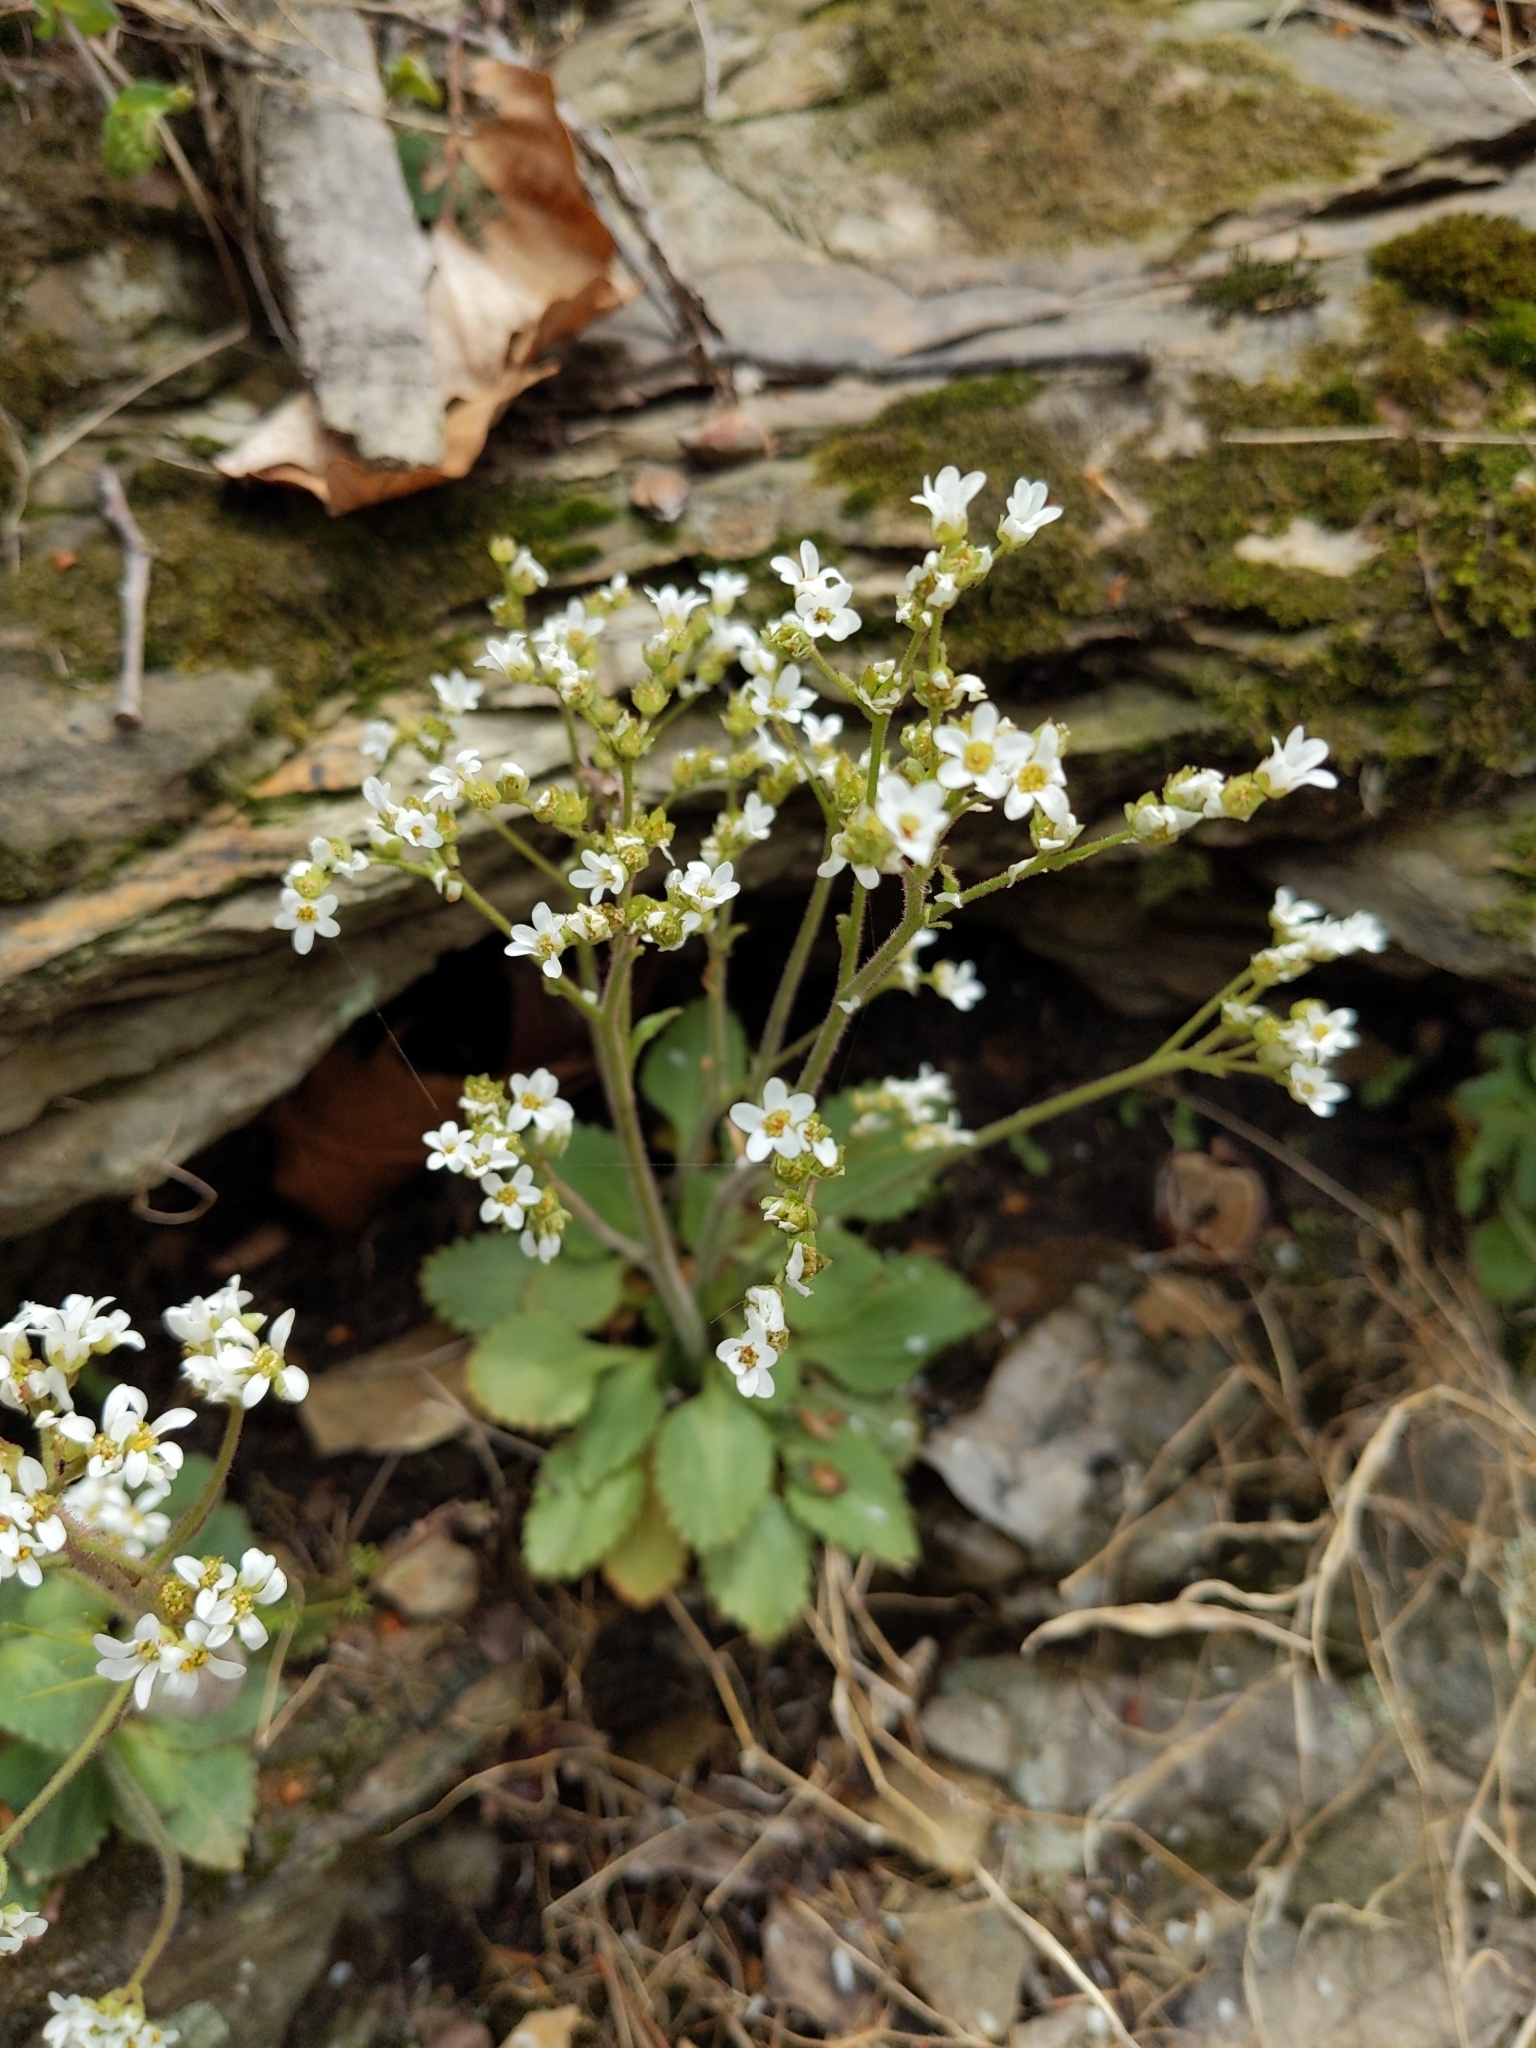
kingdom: Plantae
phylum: Tracheophyta
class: Magnoliopsida
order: Saxifragales
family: Saxifragaceae
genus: Micranthes
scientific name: Micranthes virginiensis
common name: Early saxifrage
